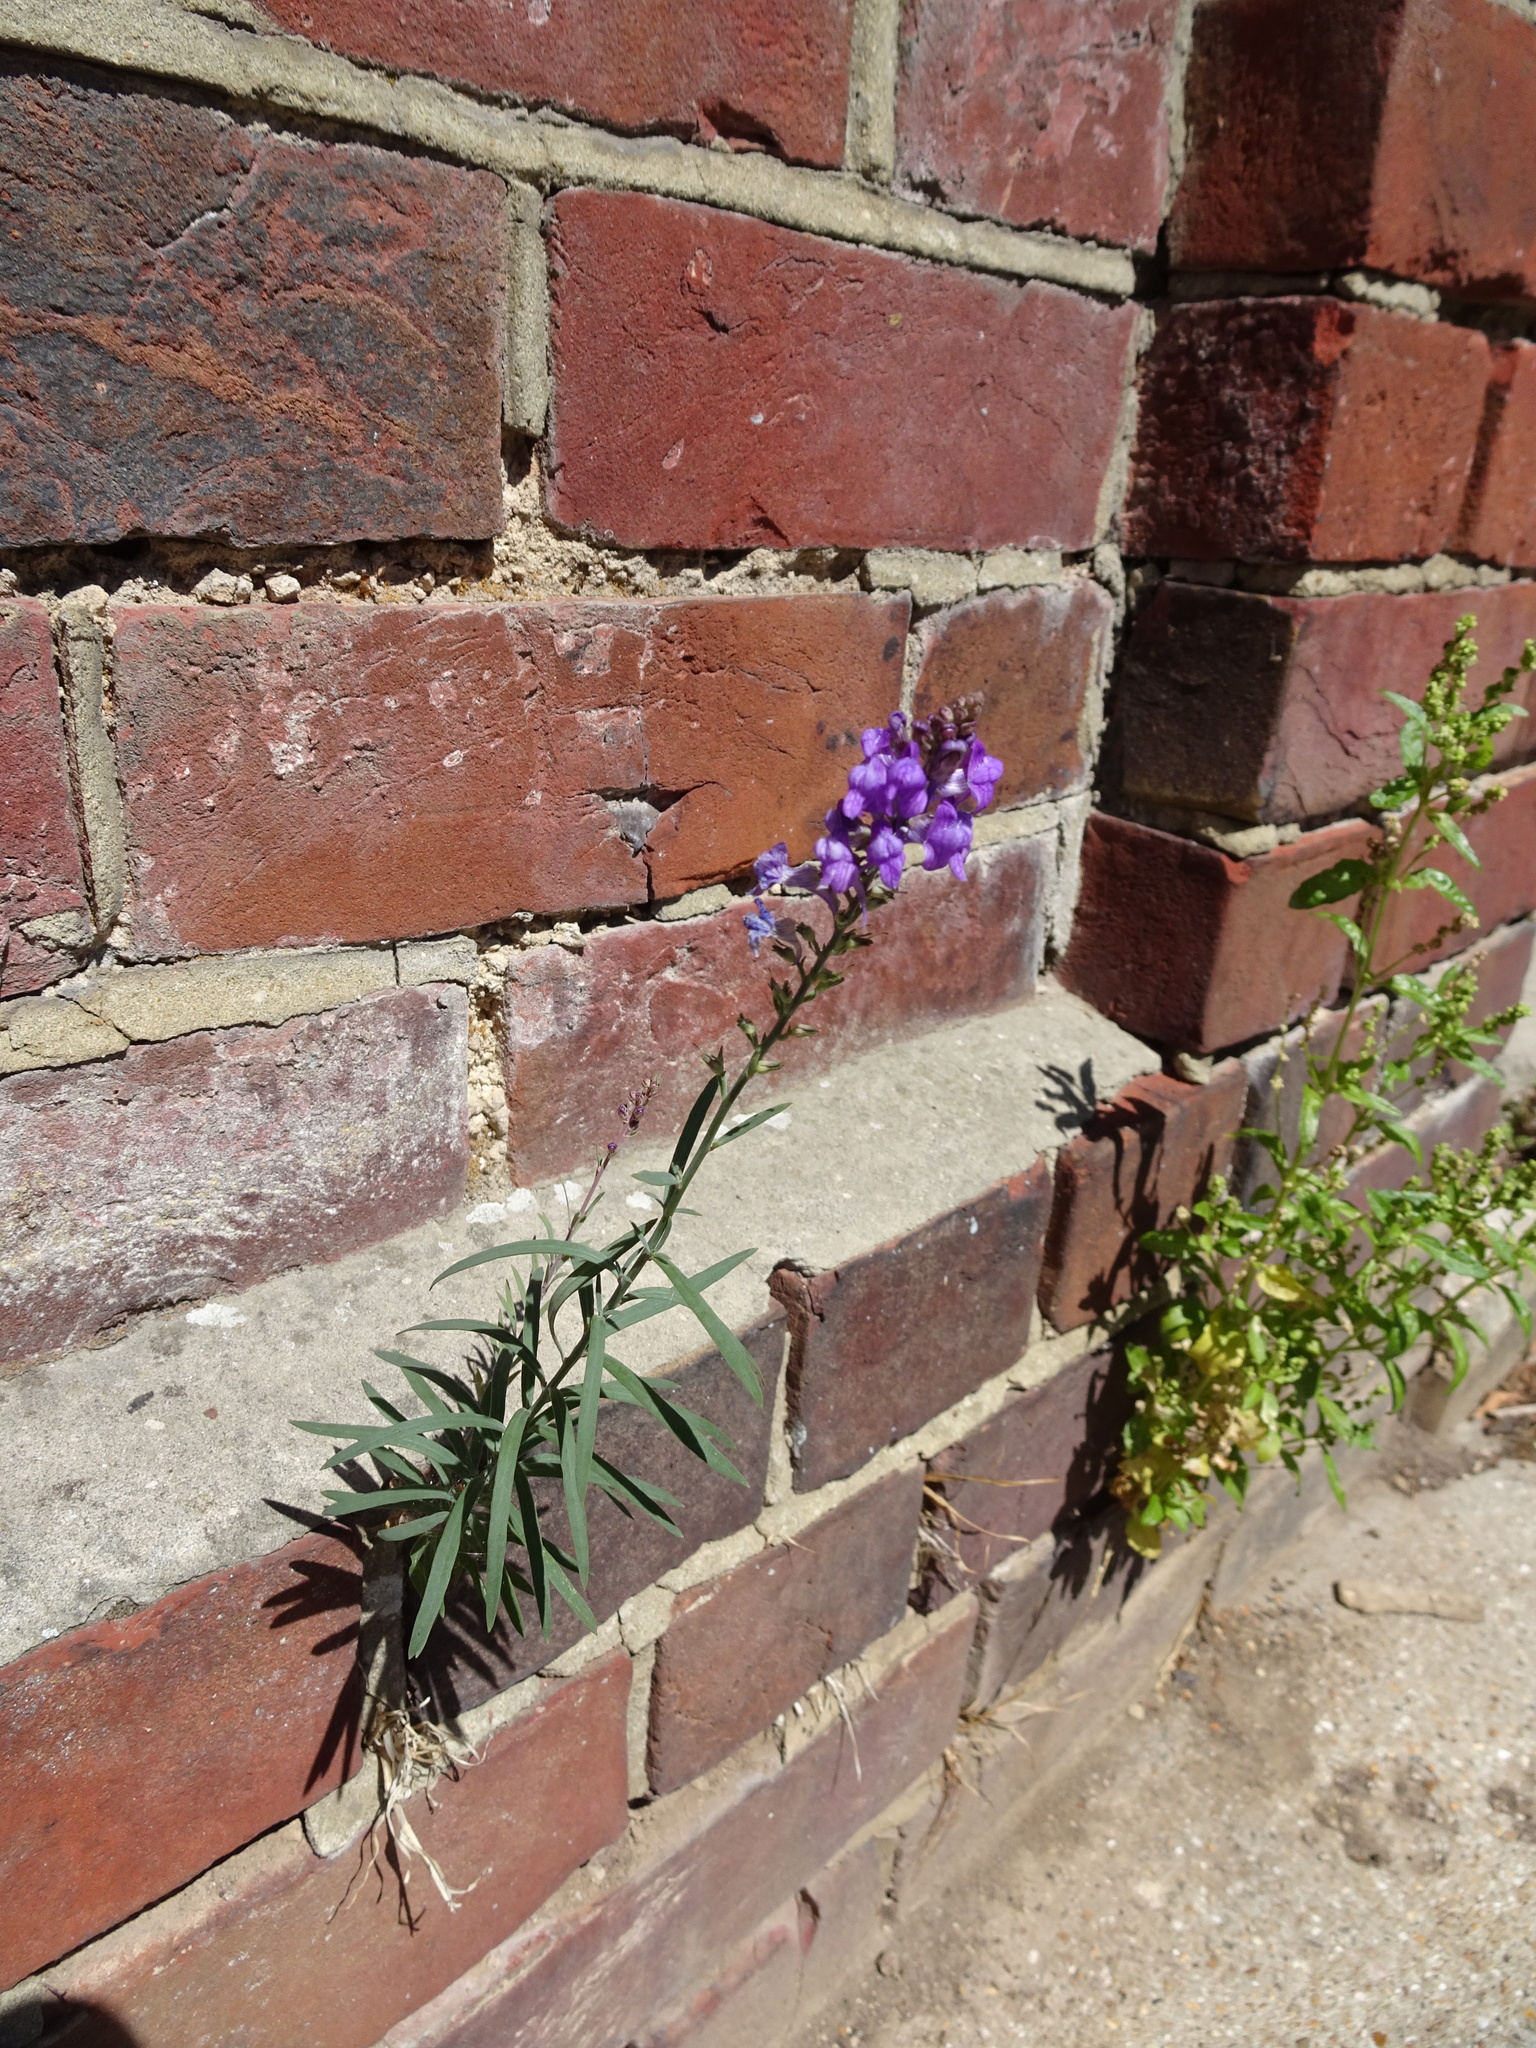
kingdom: Plantae
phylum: Tracheophyta
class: Magnoliopsida
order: Lamiales
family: Plantaginaceae
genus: Linaria
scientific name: Linaria purpurea
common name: Purple toadflax
